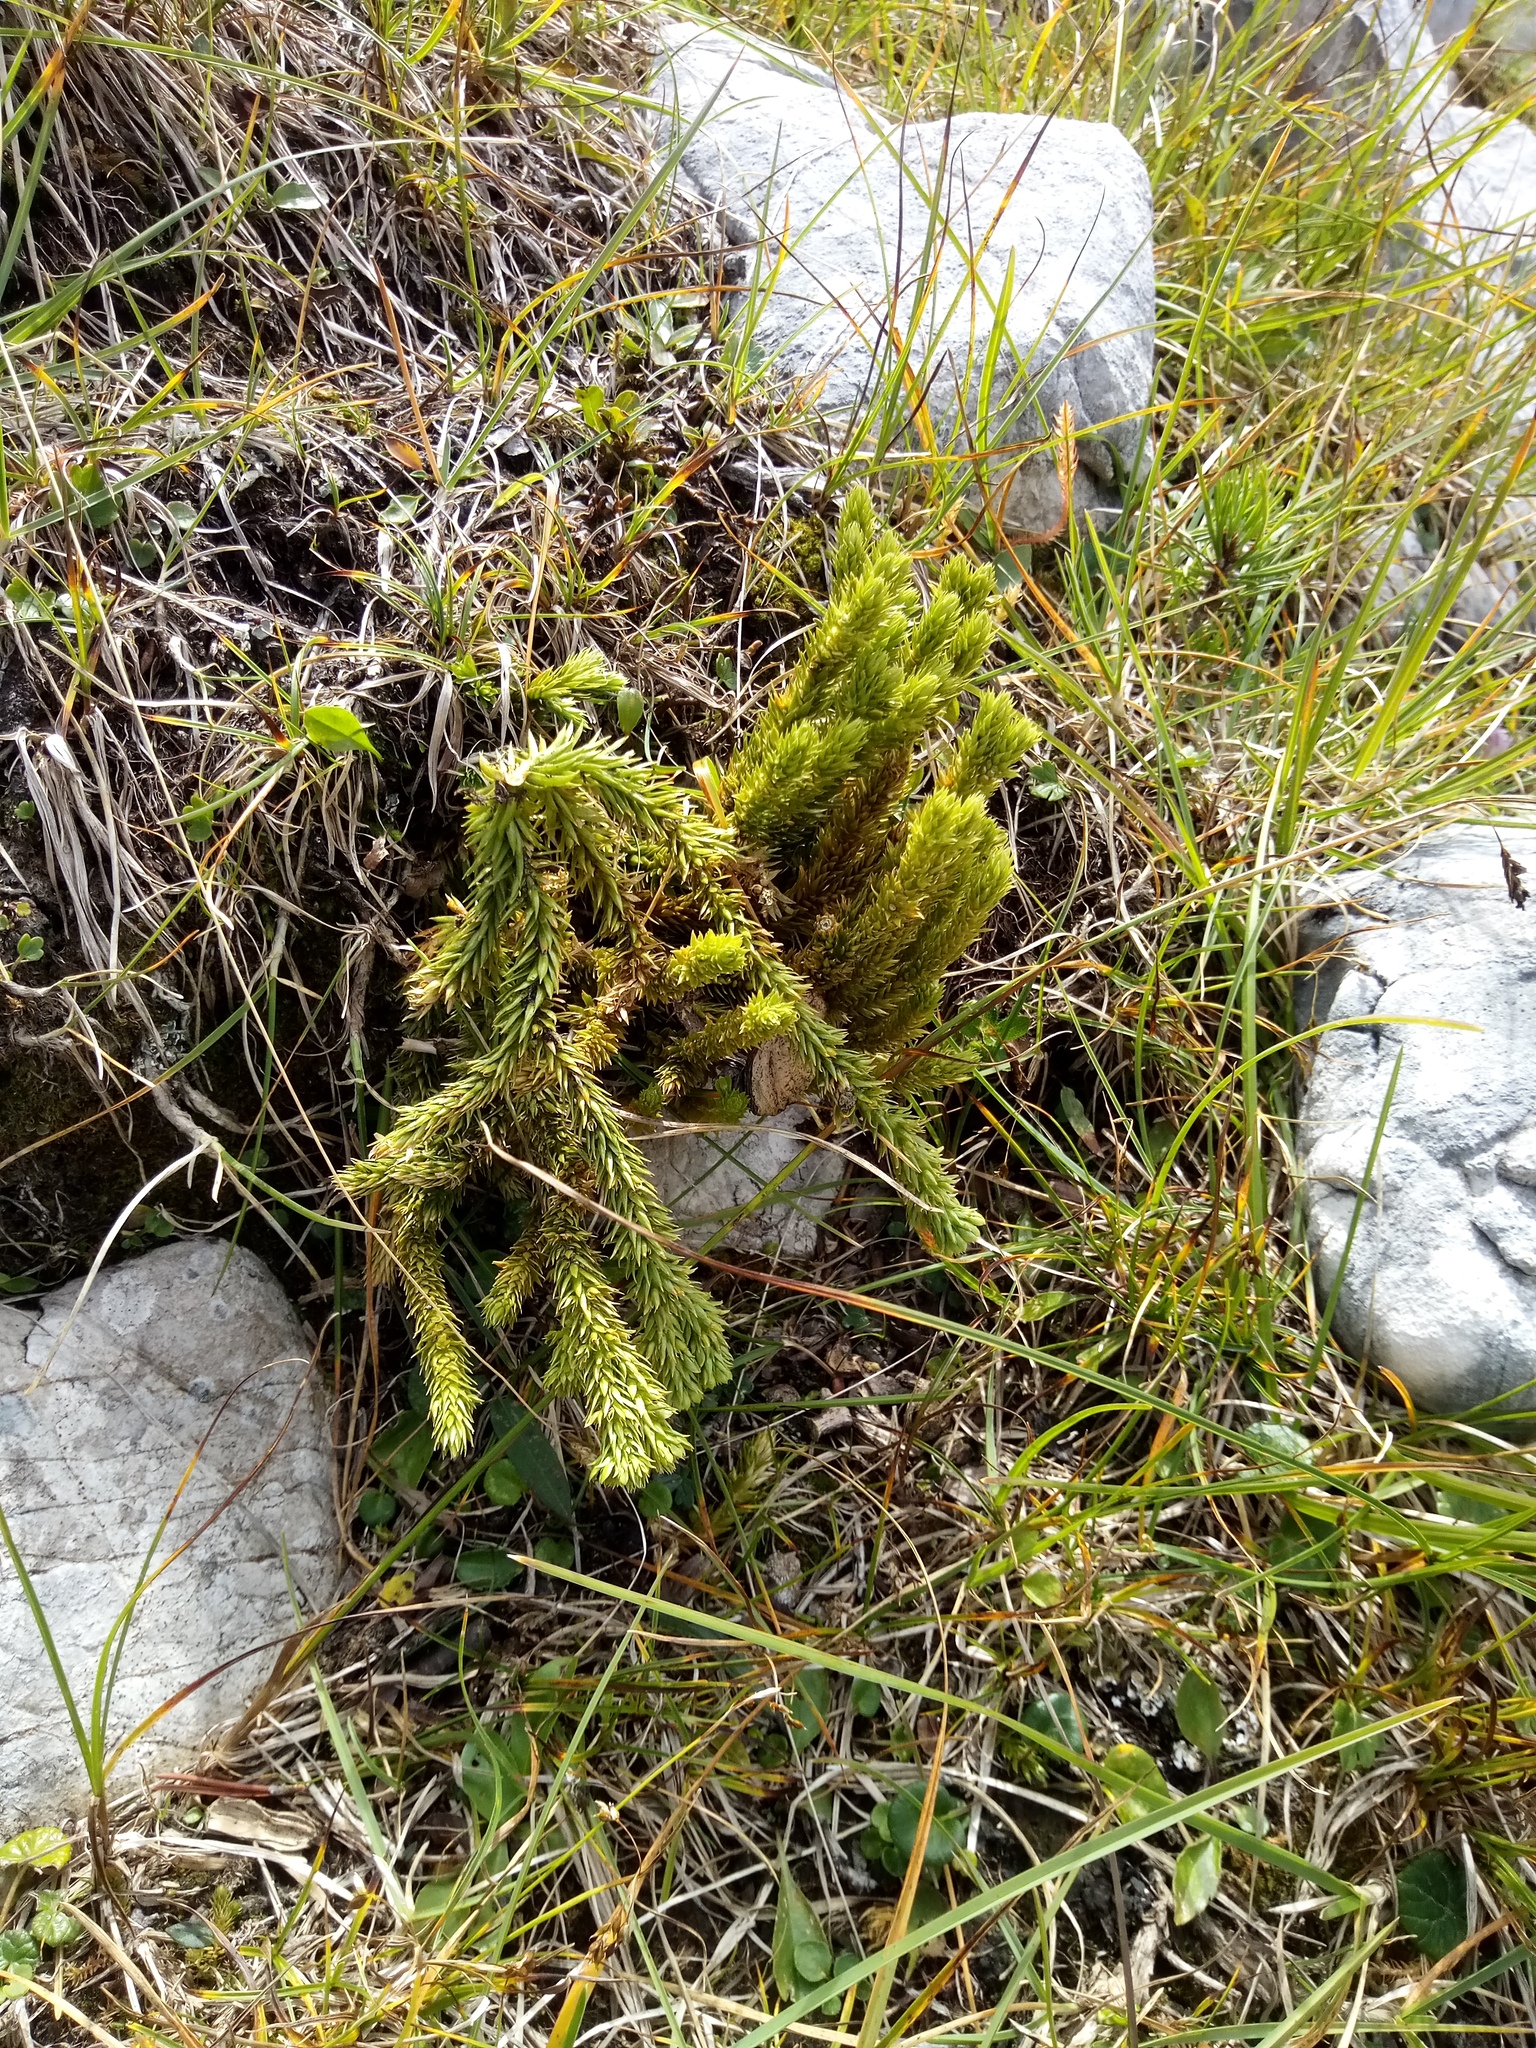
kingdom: Plantae
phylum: Tracheophyta
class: Lycopodiopsida
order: Lycopodiales
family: Lycopodiaceae
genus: Huperzia
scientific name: Huperzia selago
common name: Northern firmoss
